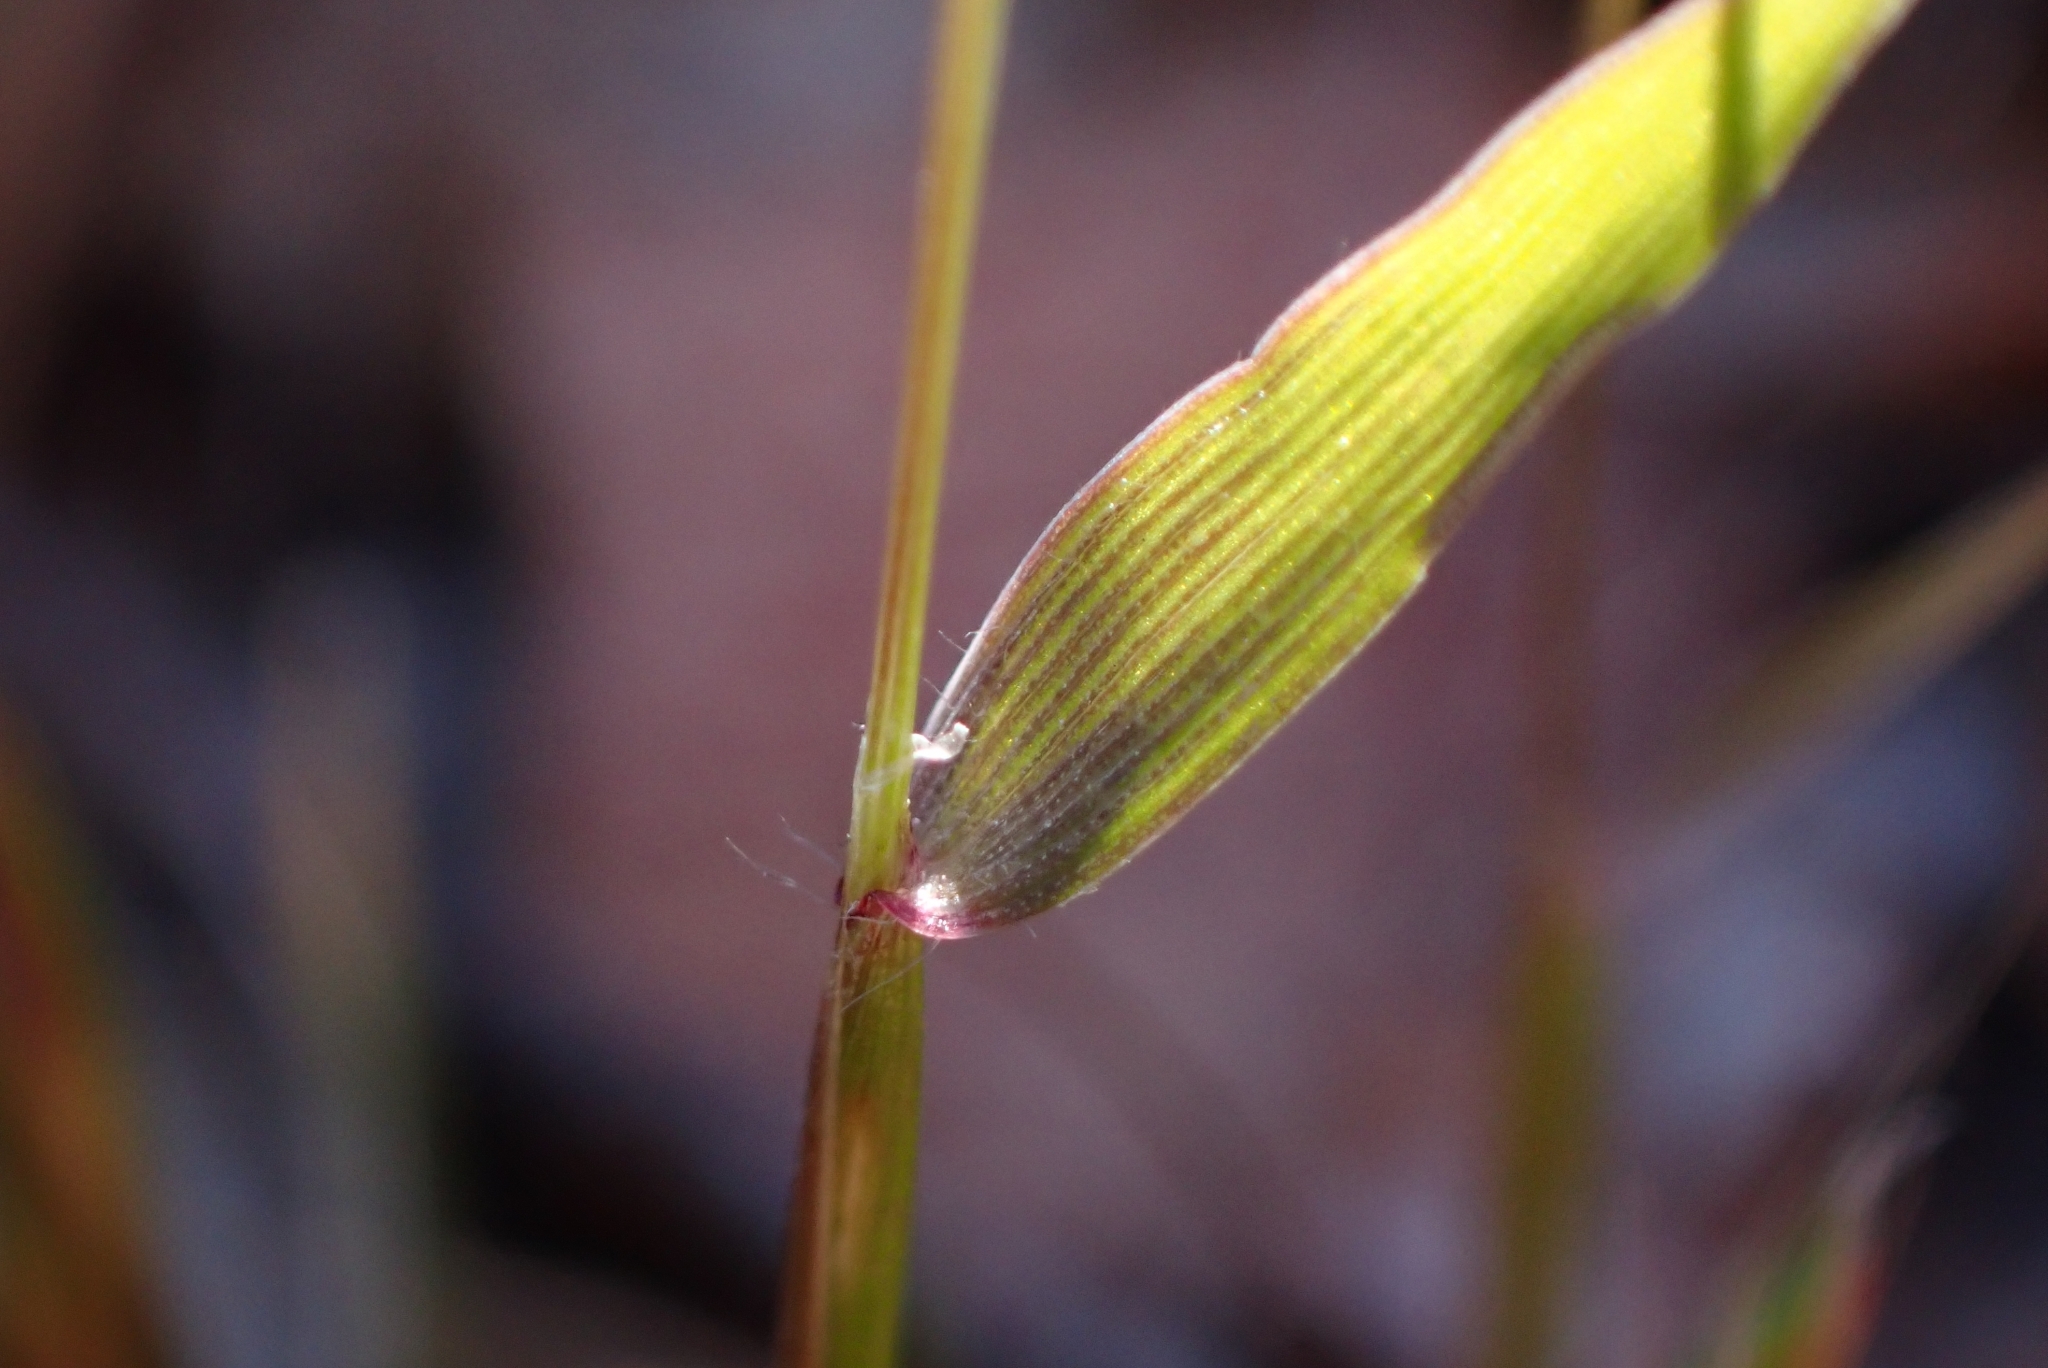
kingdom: Plantae
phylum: Tracheophyta
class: Liliopsida
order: Poales
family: Poaceae
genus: Anthoxanthum
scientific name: Anthoxanthum odoratum
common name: Sweet vernalgrass
